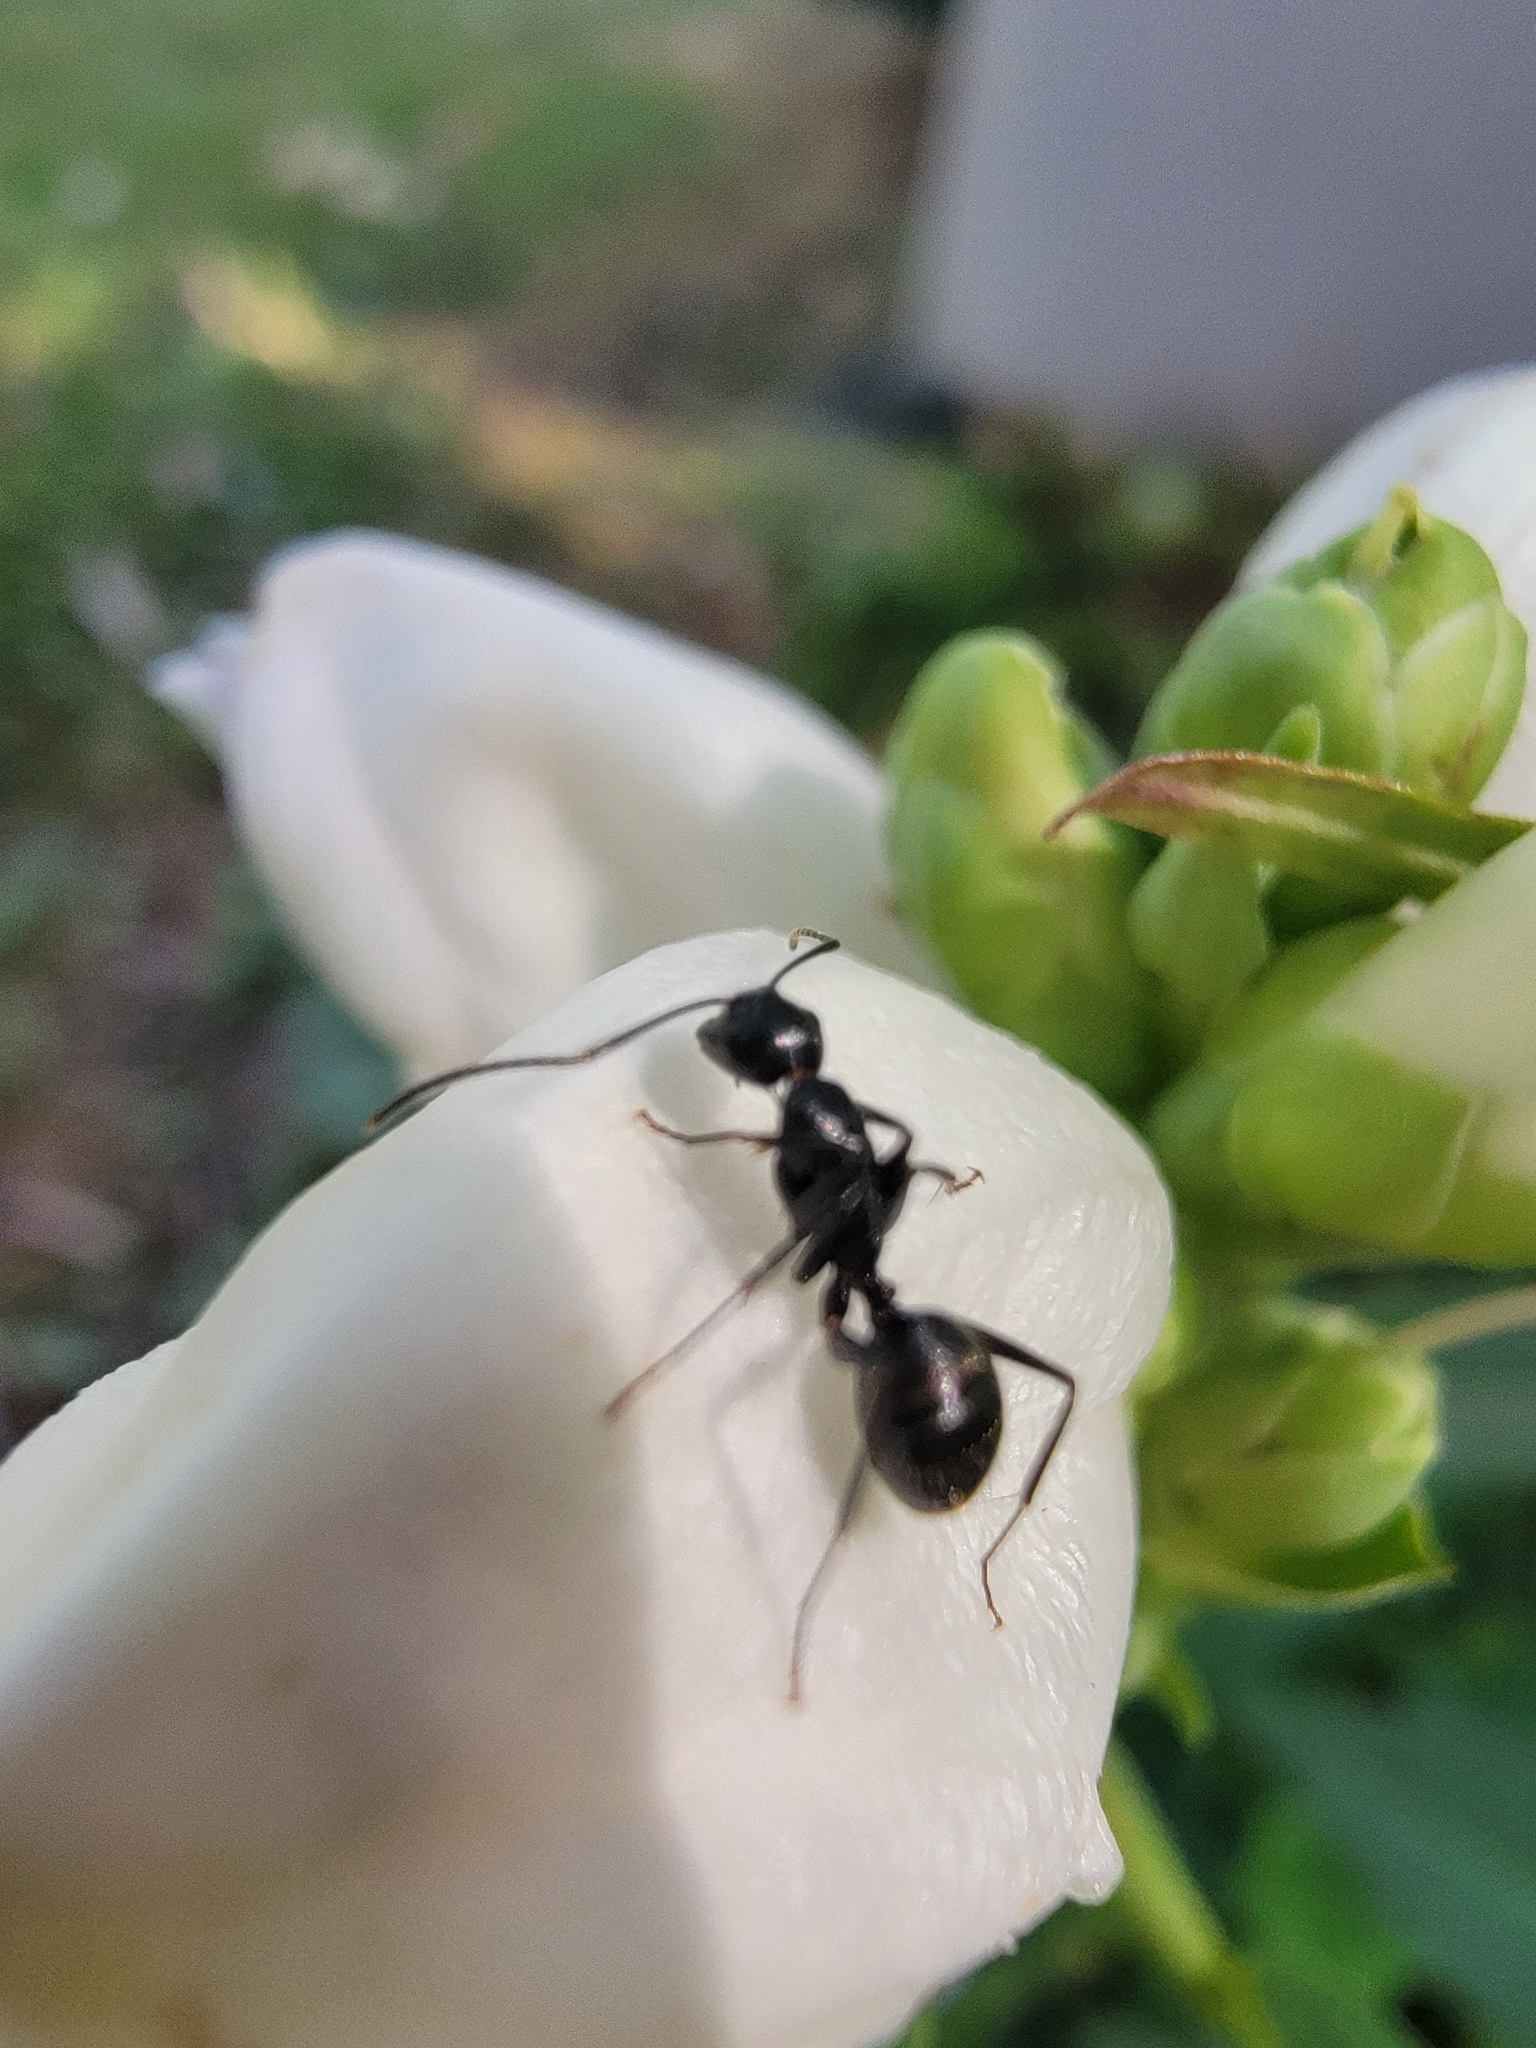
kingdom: Animalia
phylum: Arthropoda
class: Insecta
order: Hymenoptera
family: Formicidae
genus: Camponotus
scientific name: Camponotus pennsylvanicus
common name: Black carpenter ant
